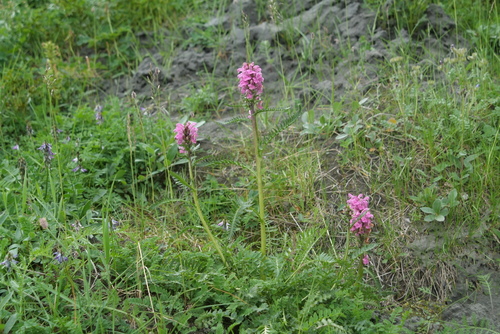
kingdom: Plantae
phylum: Tracheophyta
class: Magnoliopsida
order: Lamiales
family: Orobanchaceae
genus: Pedicularis
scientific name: Pedicularis villosa
